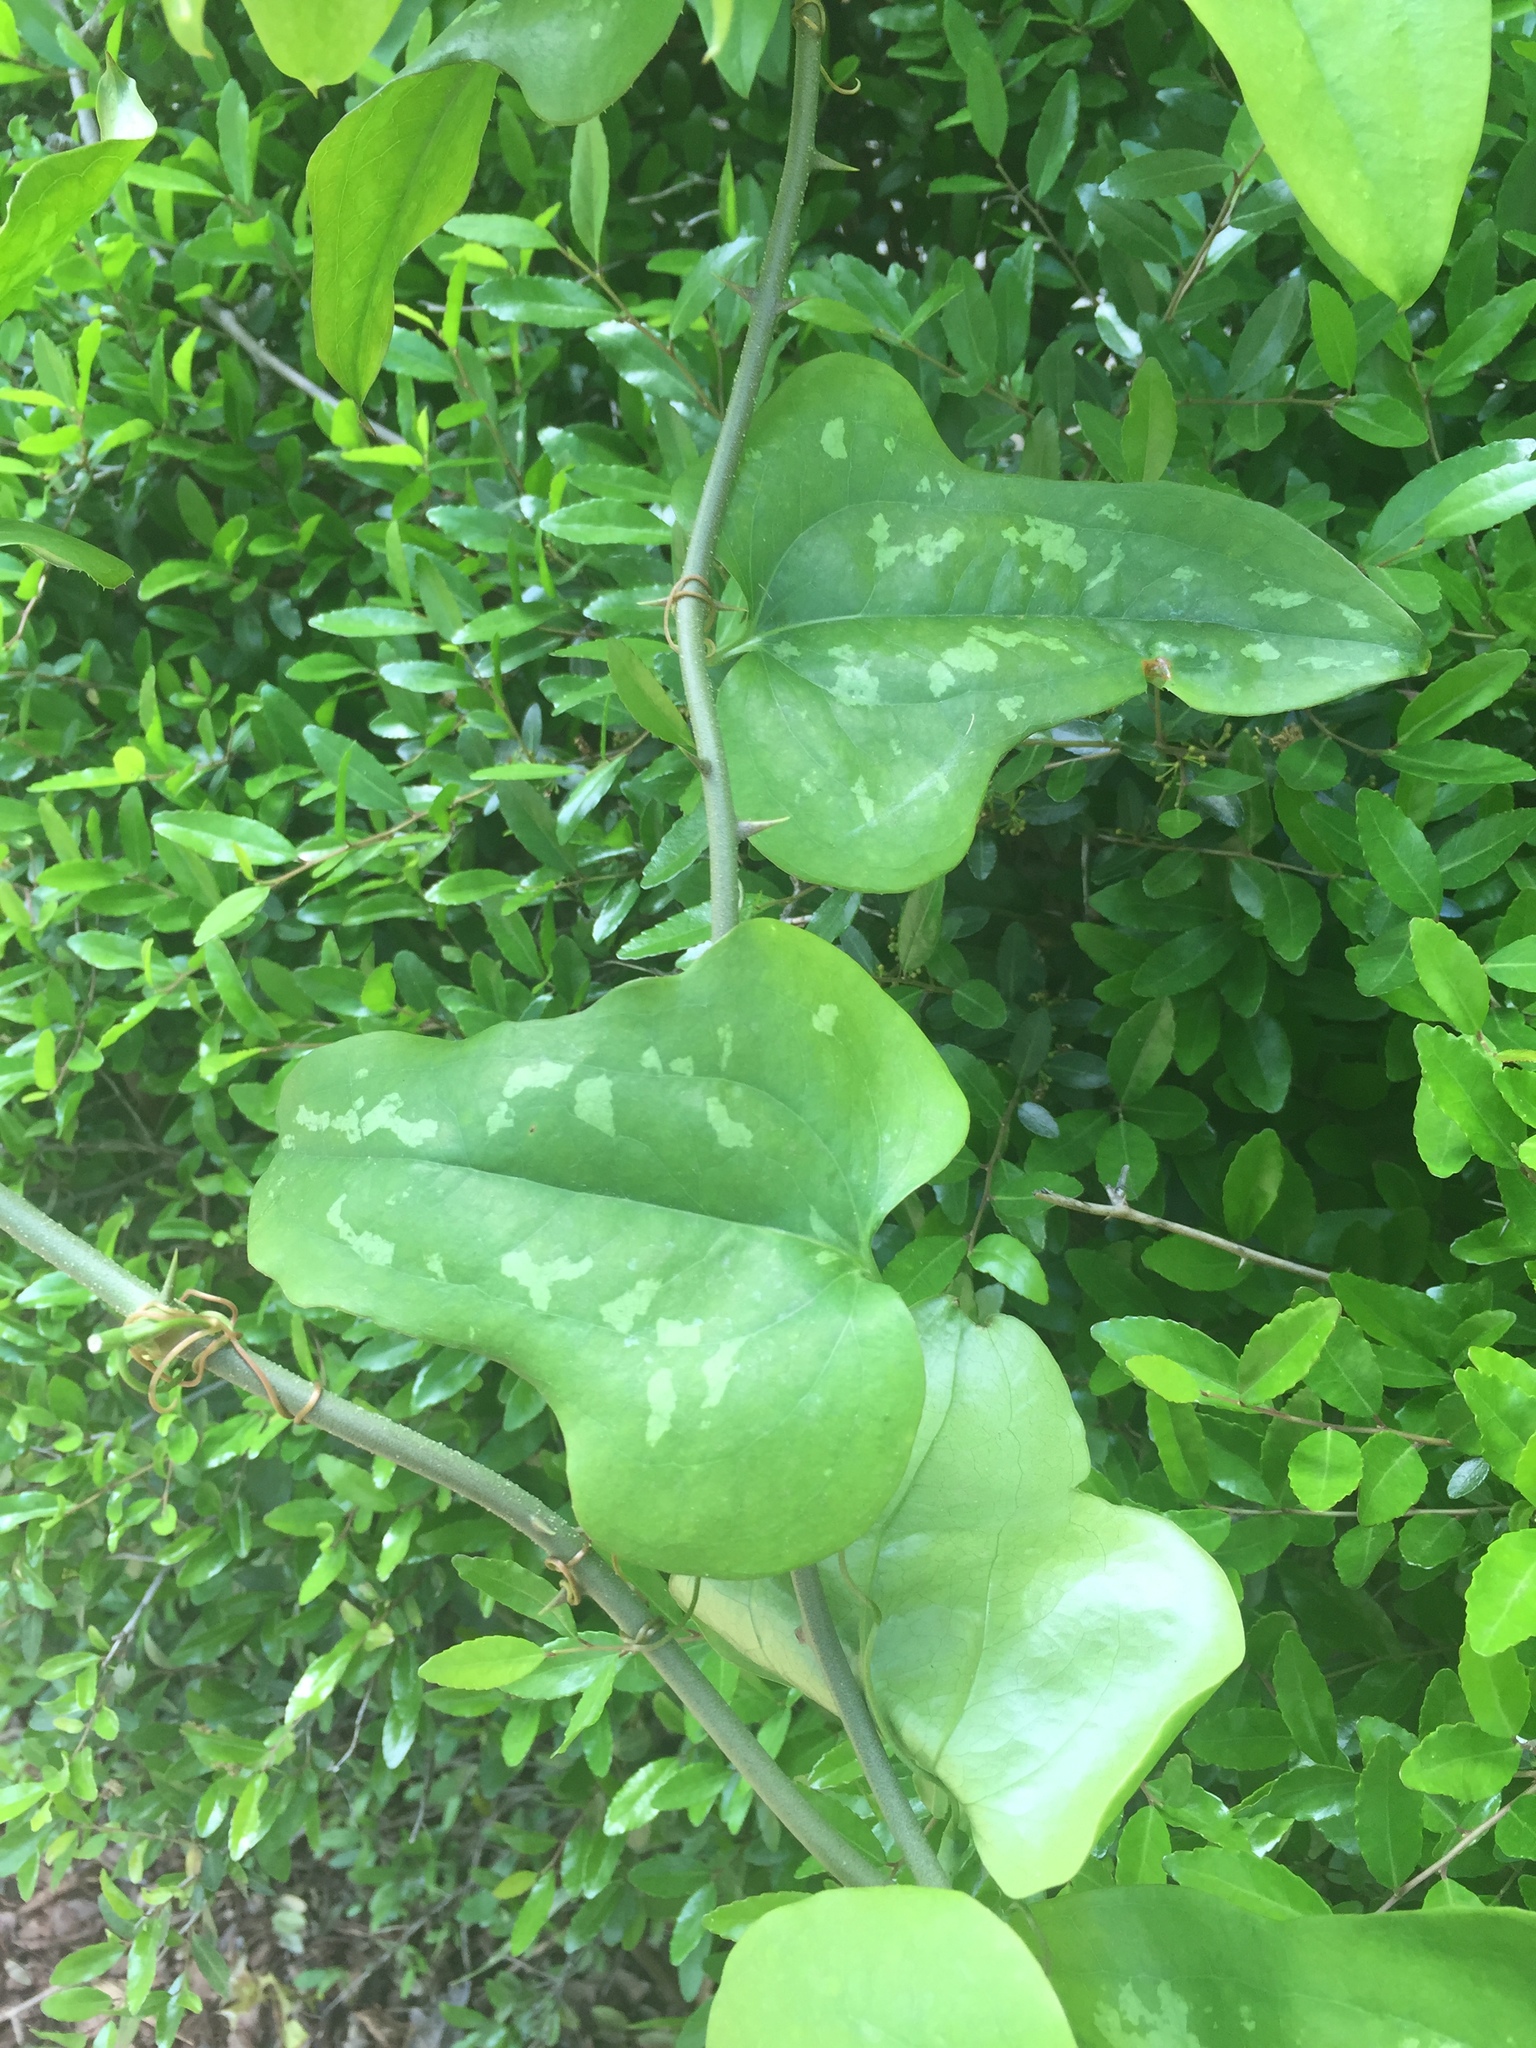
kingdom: Plantae
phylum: Tracheophyta
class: Liliopsida
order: Liliales
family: Smilacaceae
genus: Smilax
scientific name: Smilax bona-nox
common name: Catbrier
